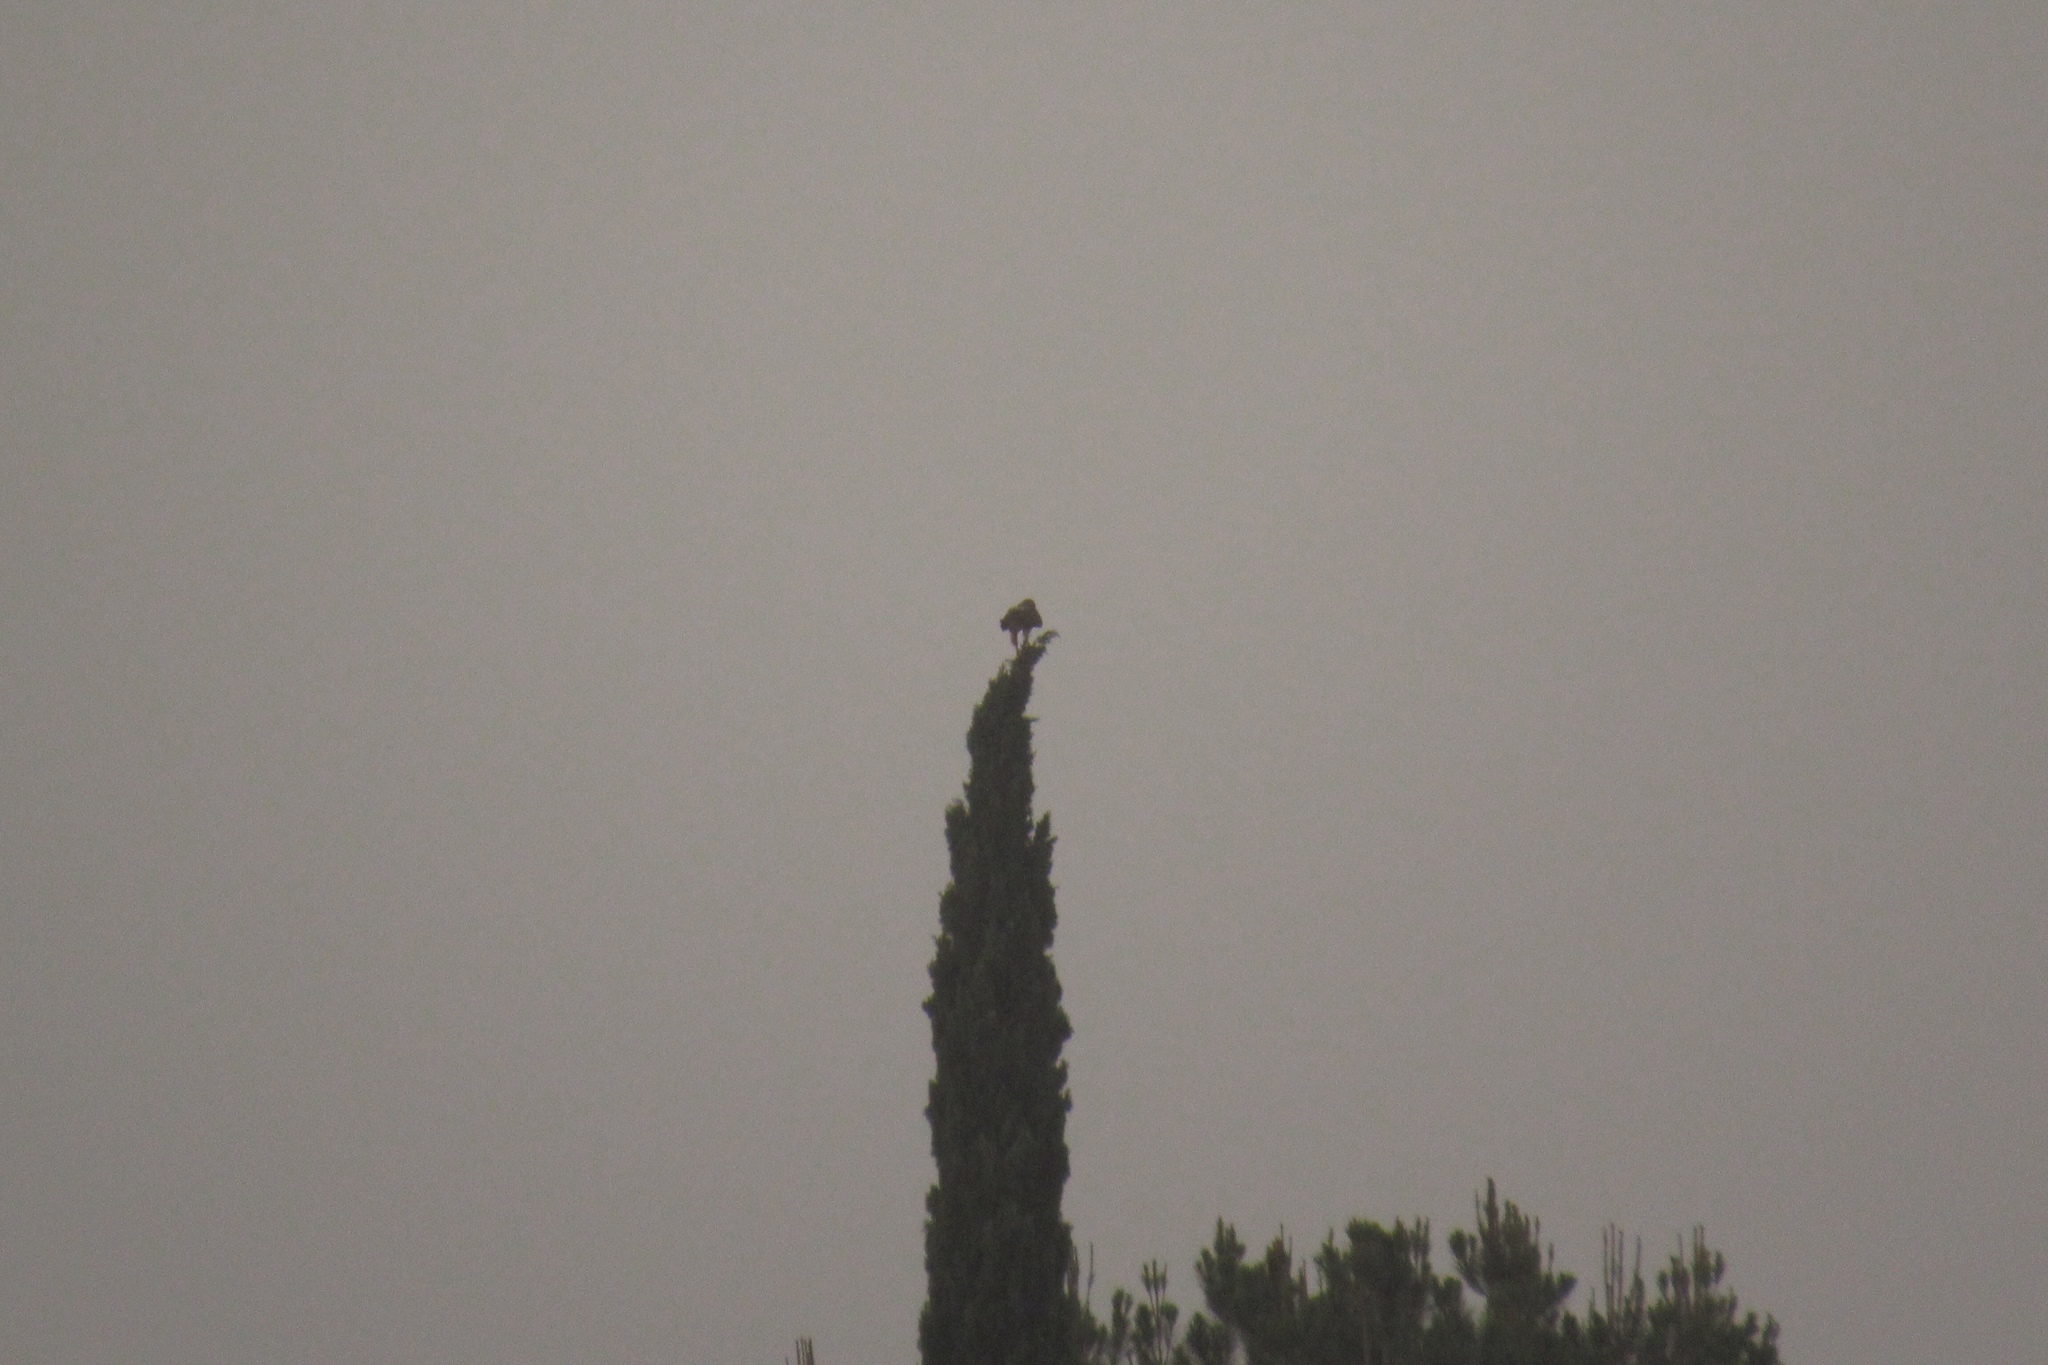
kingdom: Animalia
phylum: Chordata
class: Aves
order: Accipitriformes
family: Accipitridae
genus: Buteo
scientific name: Buteo jamaicensis
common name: Red-tailed hawk
